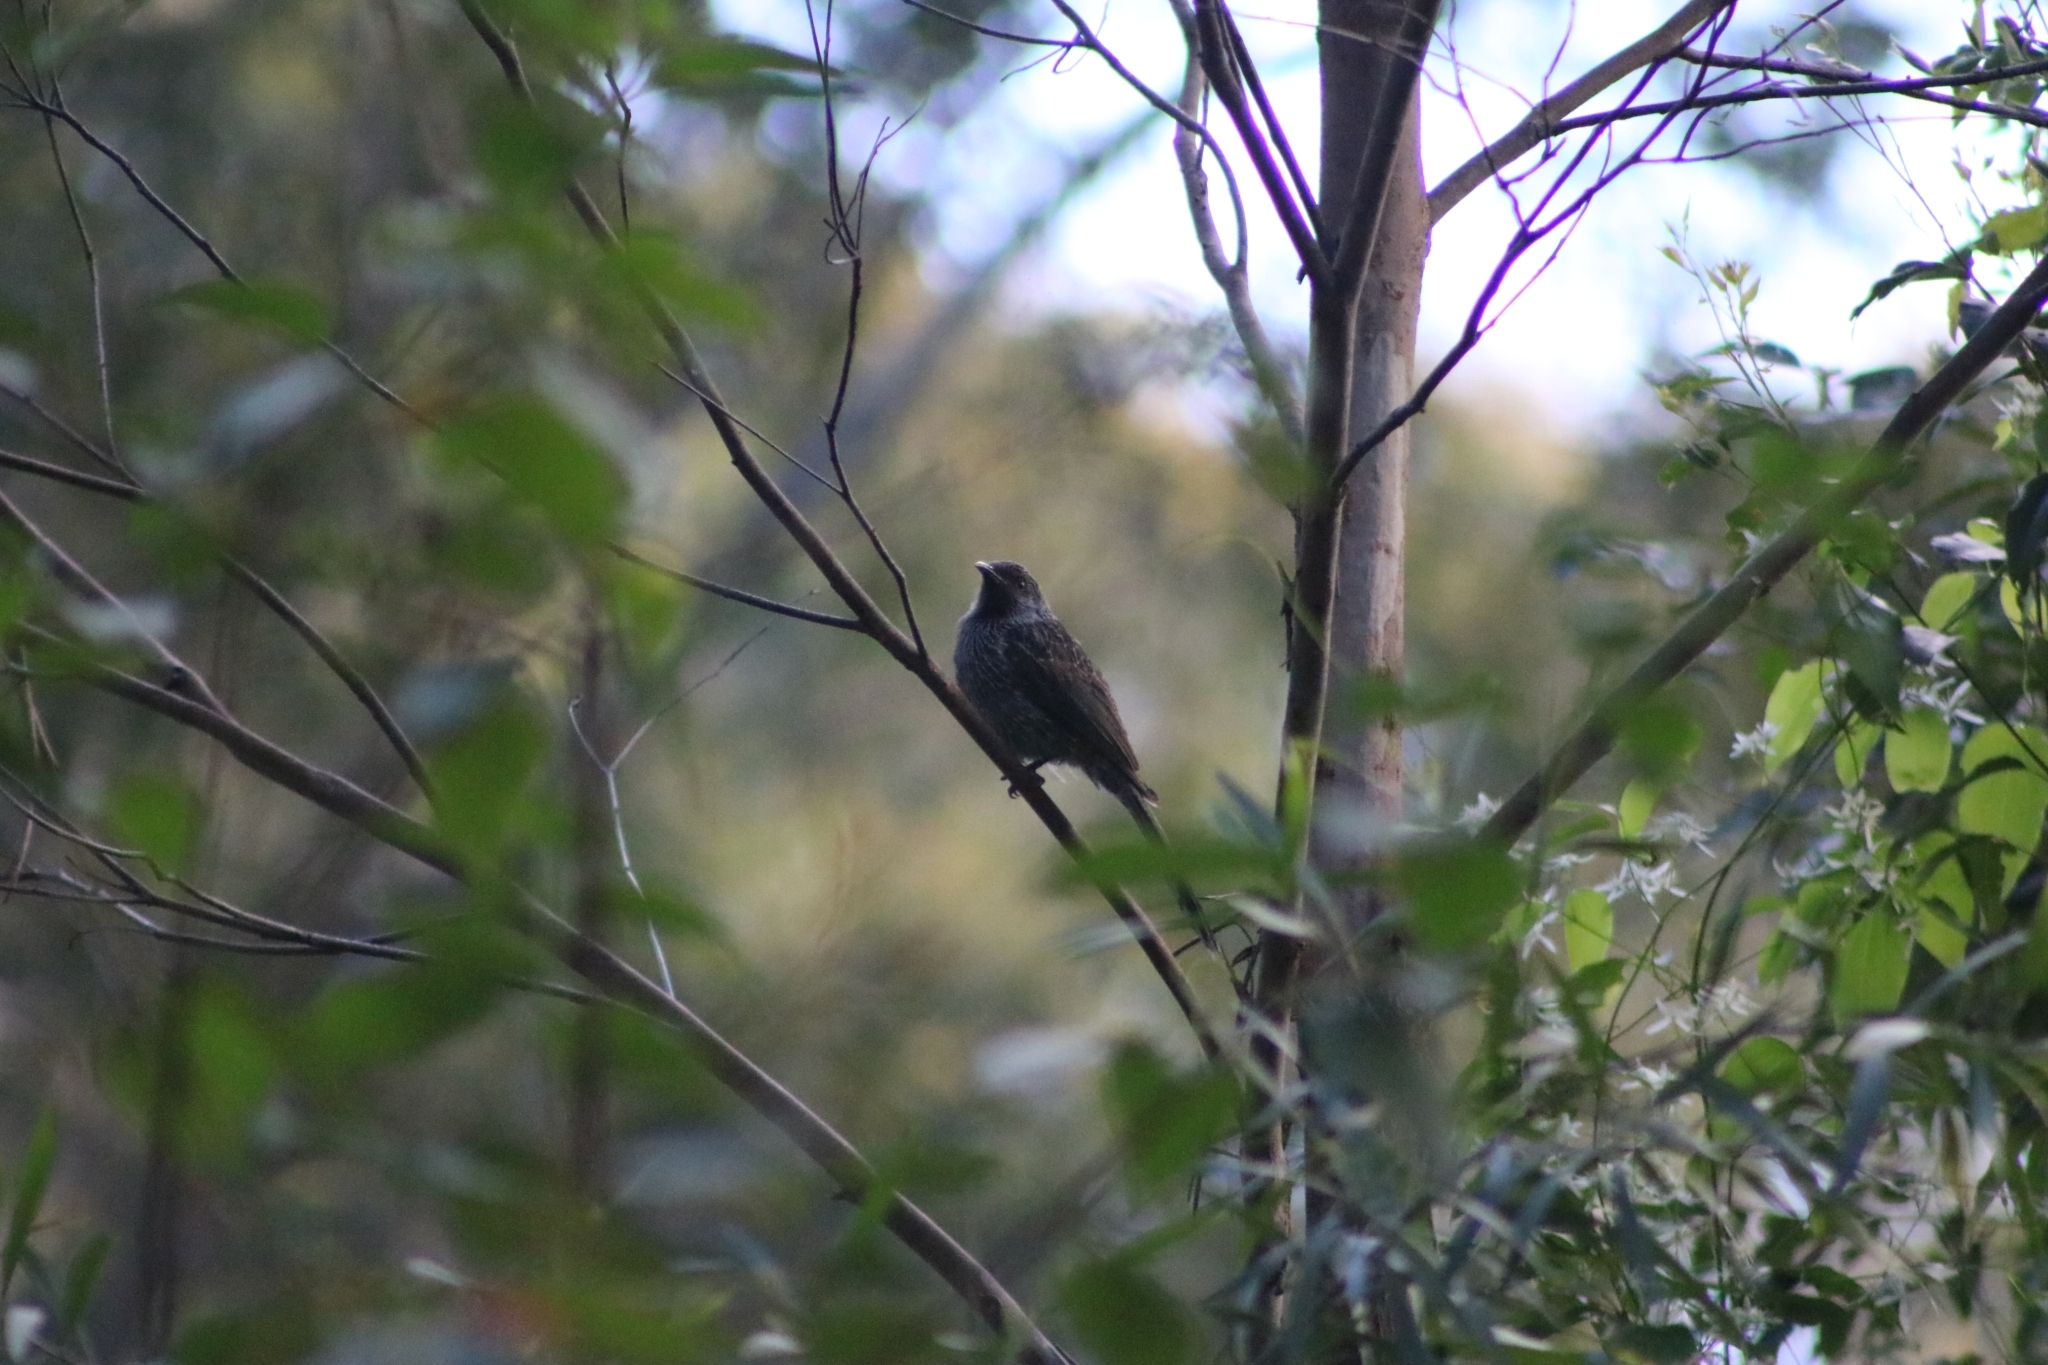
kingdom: Animalia
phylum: Chordata
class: Aves
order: Passeriformes
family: Meliphagidae
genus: Anthochaera
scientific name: Anthochaera chrysoptera
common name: Little wattlebird
